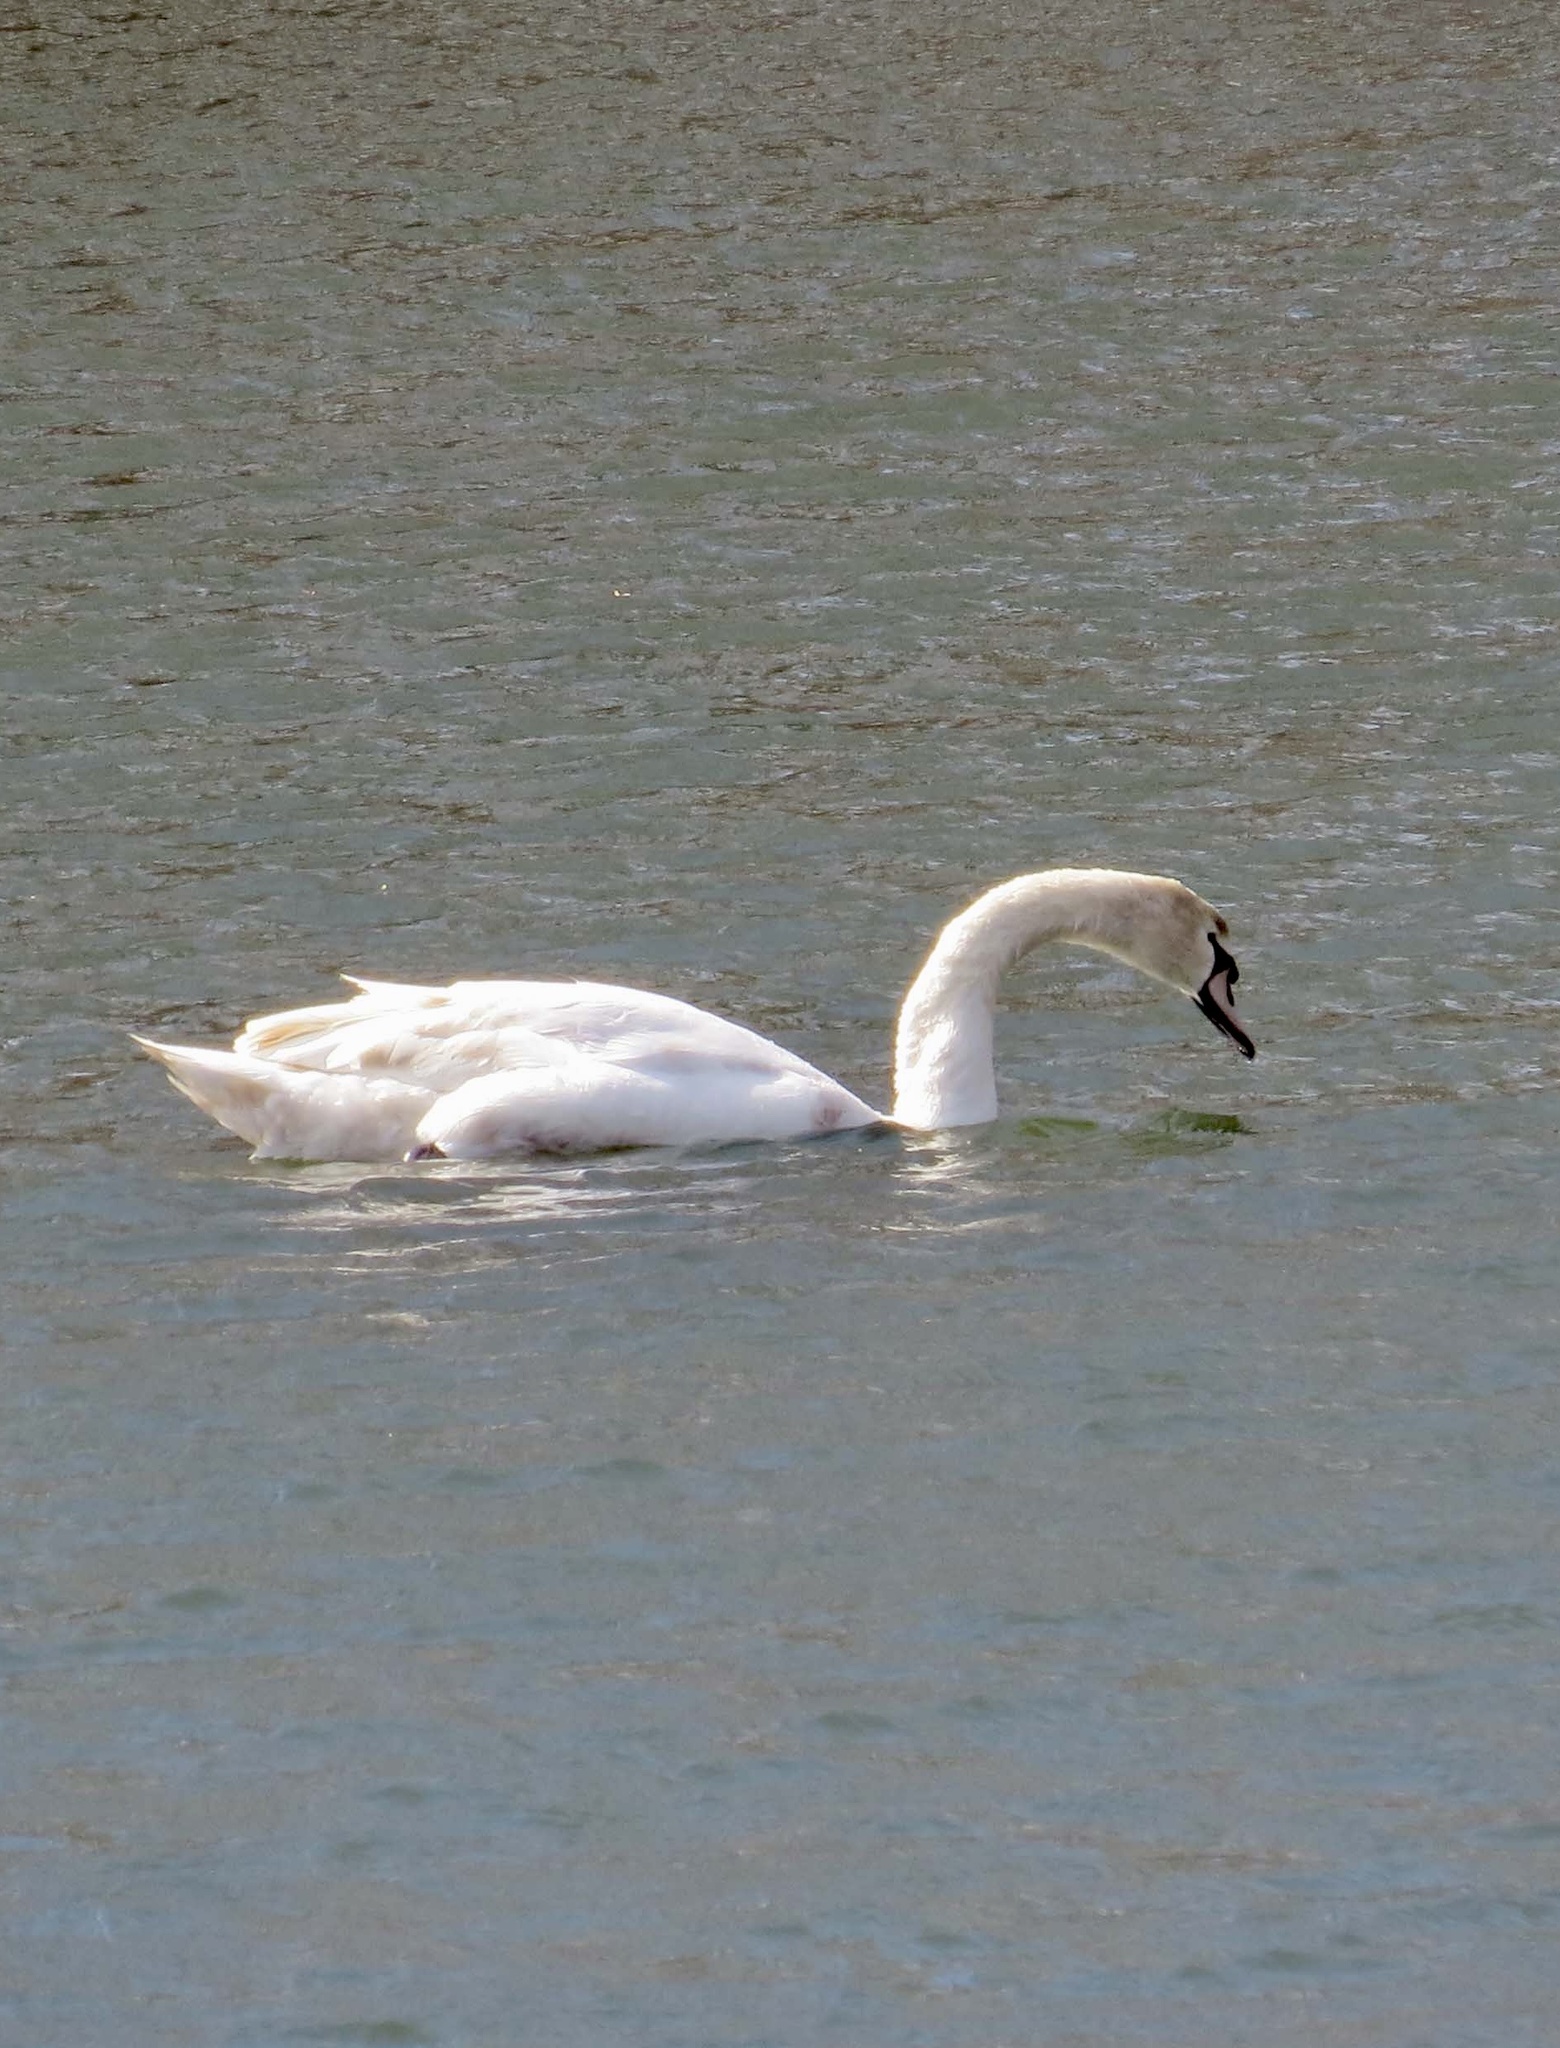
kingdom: Animalia
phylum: Chordata
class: Aves
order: Anseriformes
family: Anatidae
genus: Cygnus
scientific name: Cygnus olor
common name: Mute swan
